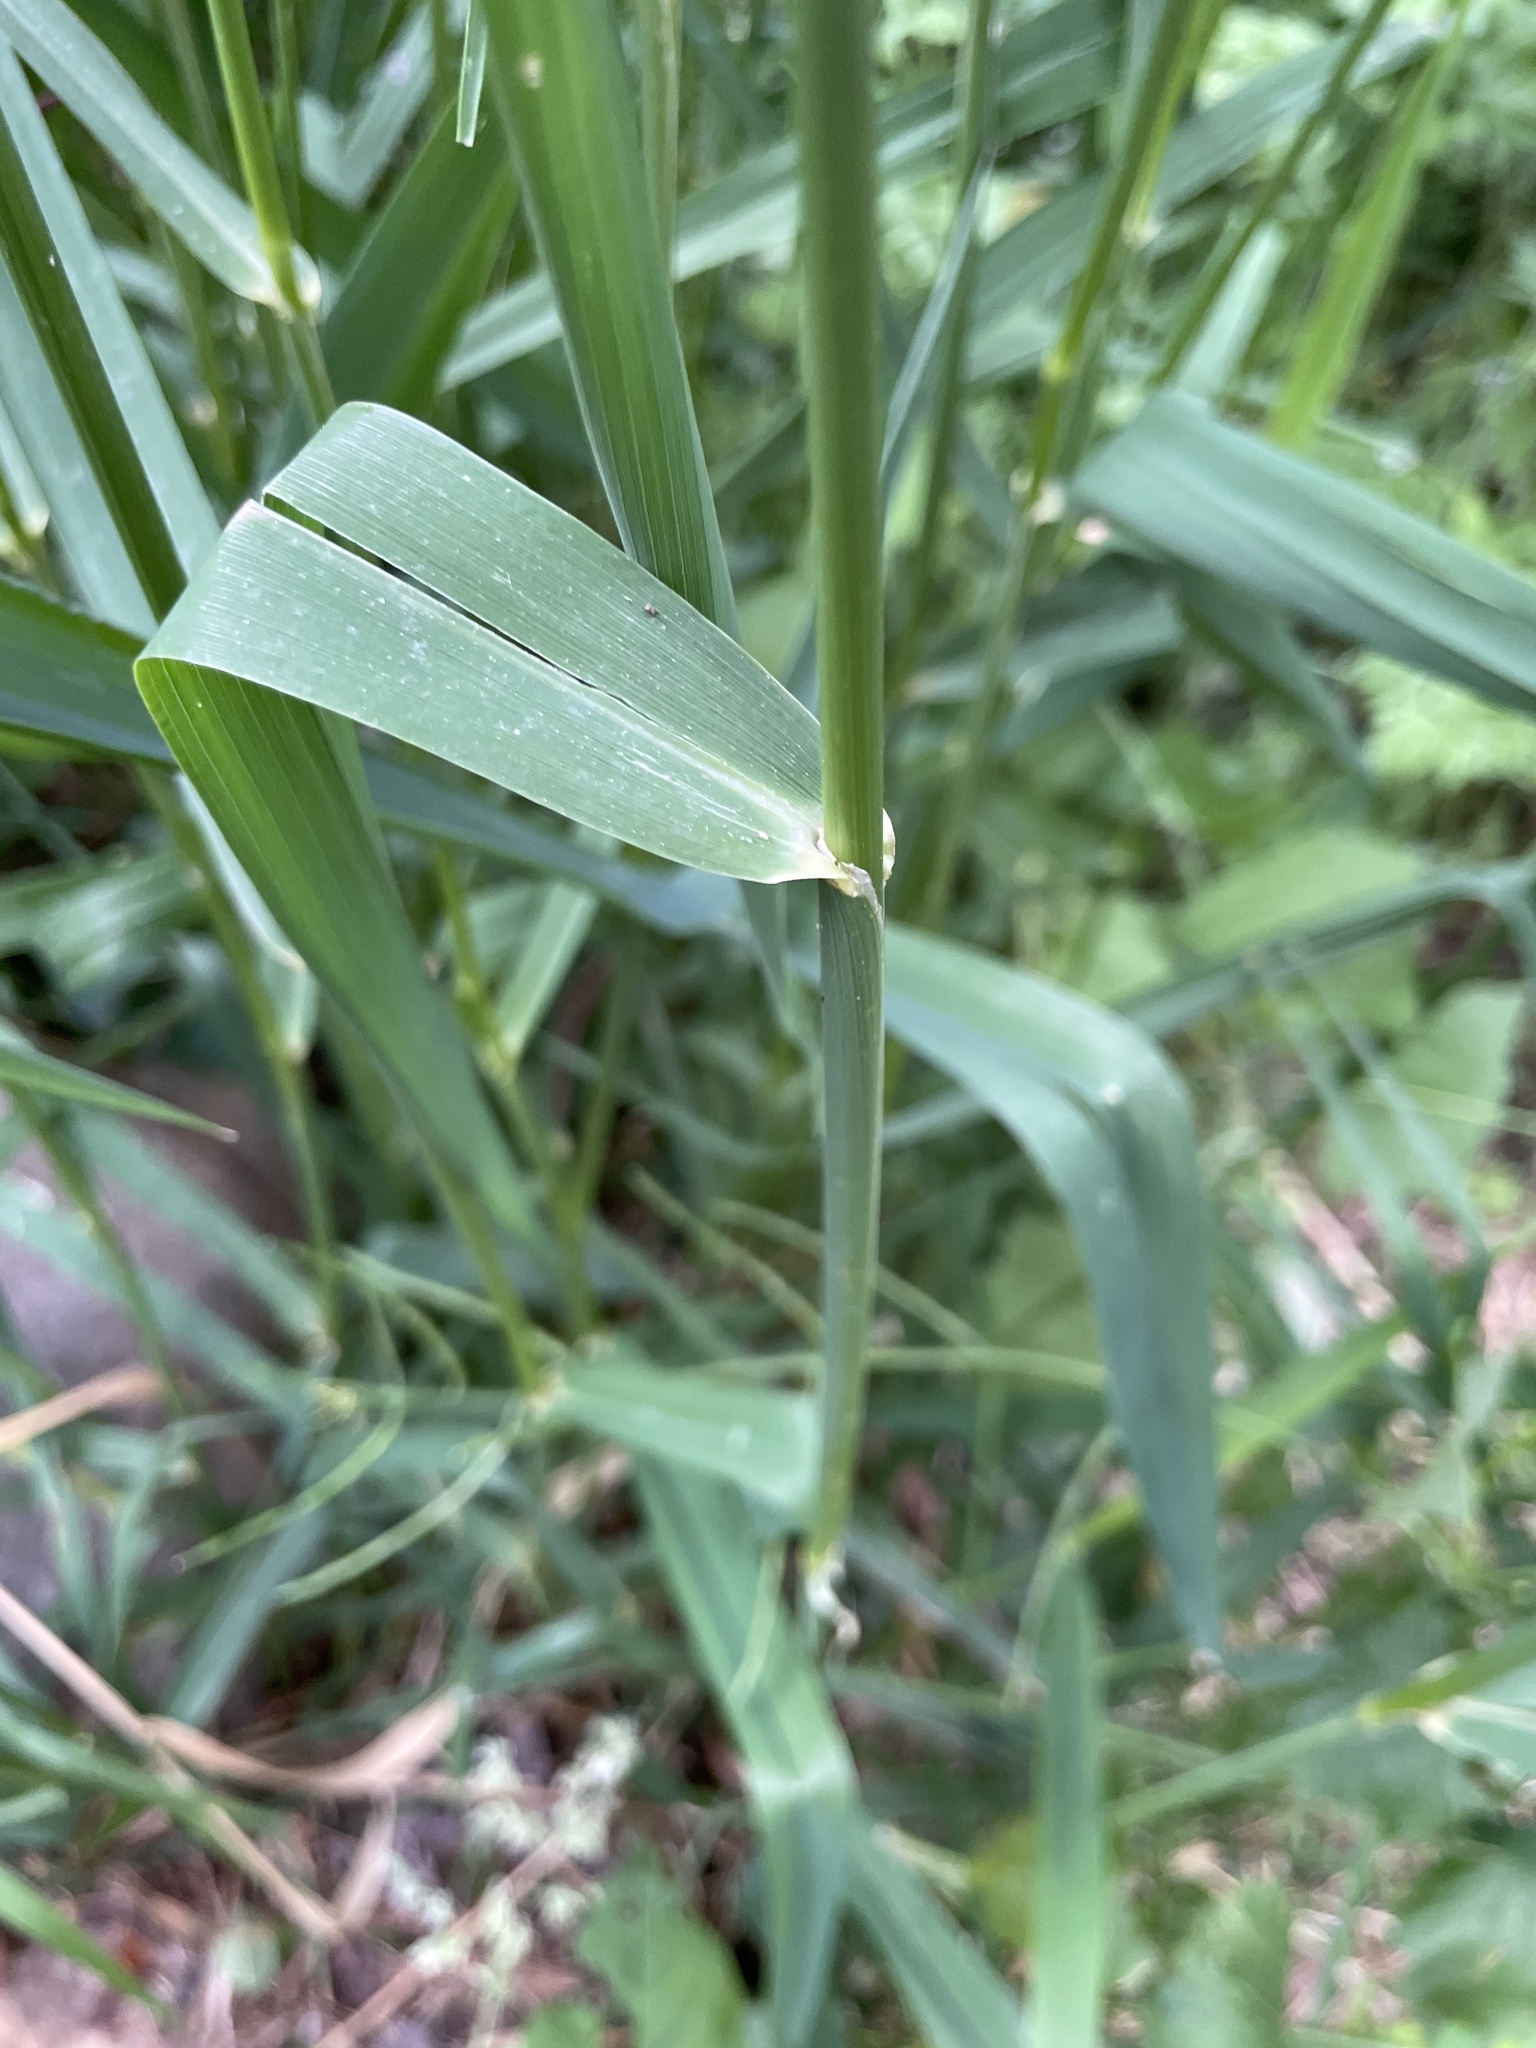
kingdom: Plantae
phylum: Tracheophyta
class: Liliopsida
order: Poales
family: Poaceae
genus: Phalaris
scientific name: Phalaris arundinacea
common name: Reed canary-grass
